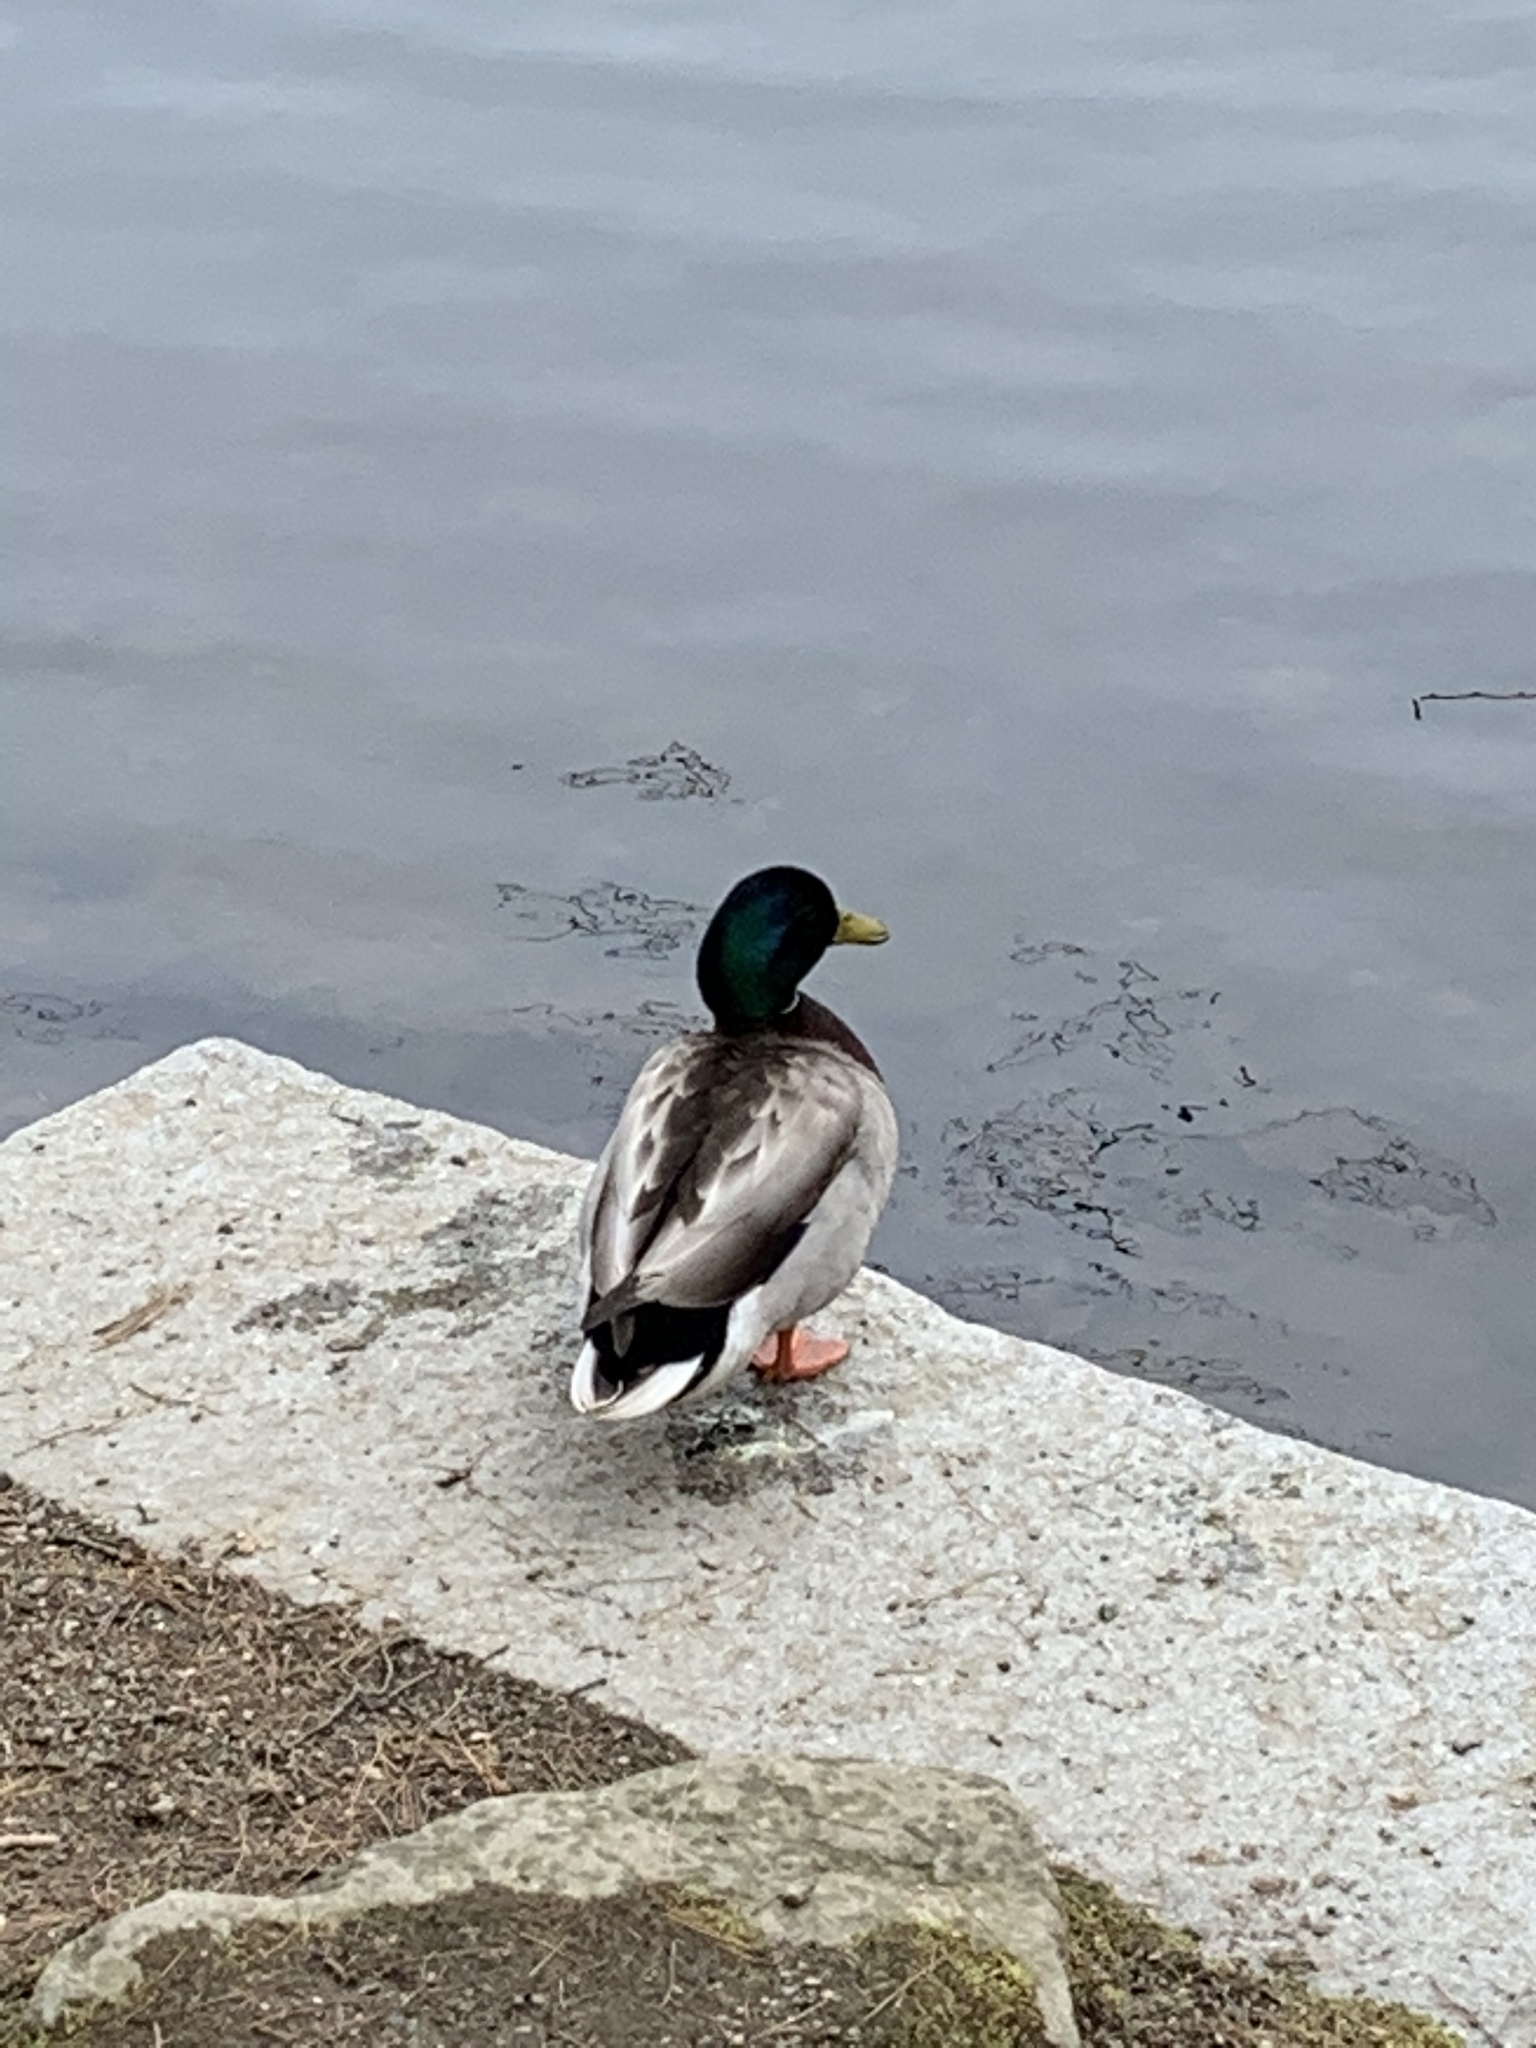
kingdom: Animalia
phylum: Chordata
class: Aves
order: Anseriformes
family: Anatidae
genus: Anas
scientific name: Anas platyrhynchos
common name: Mallard
